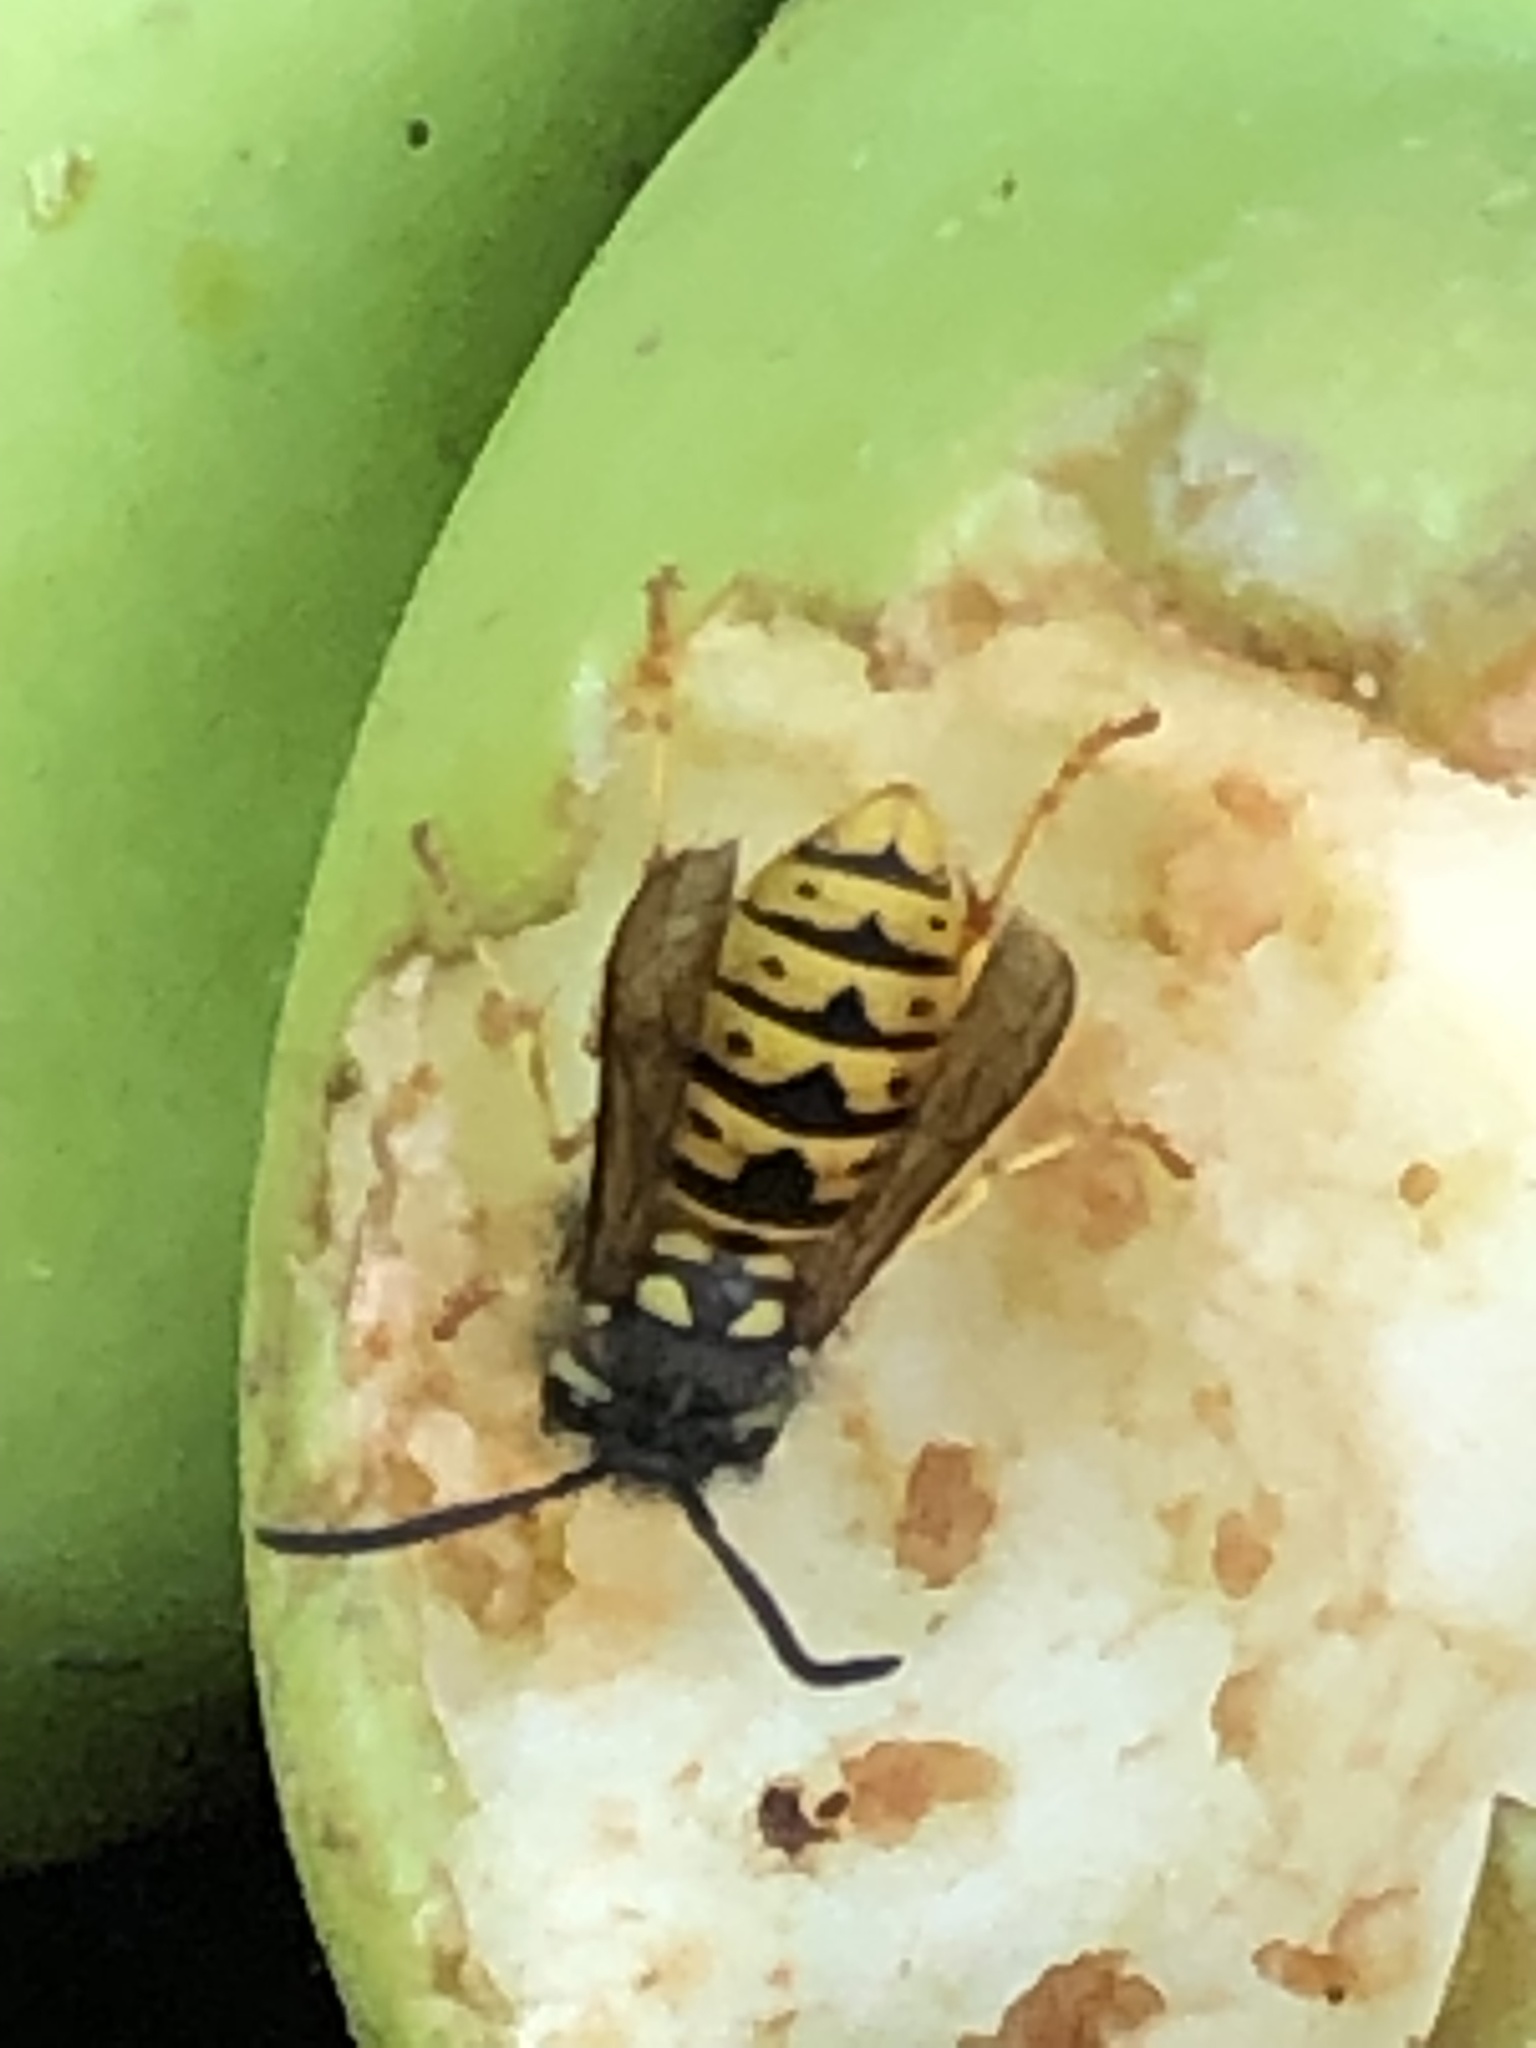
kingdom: Animalia
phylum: Arthropoda
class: Insecta
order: Hymenoptera
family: Vespidae
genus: Vespula
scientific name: Vespula germanica
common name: German wasp
